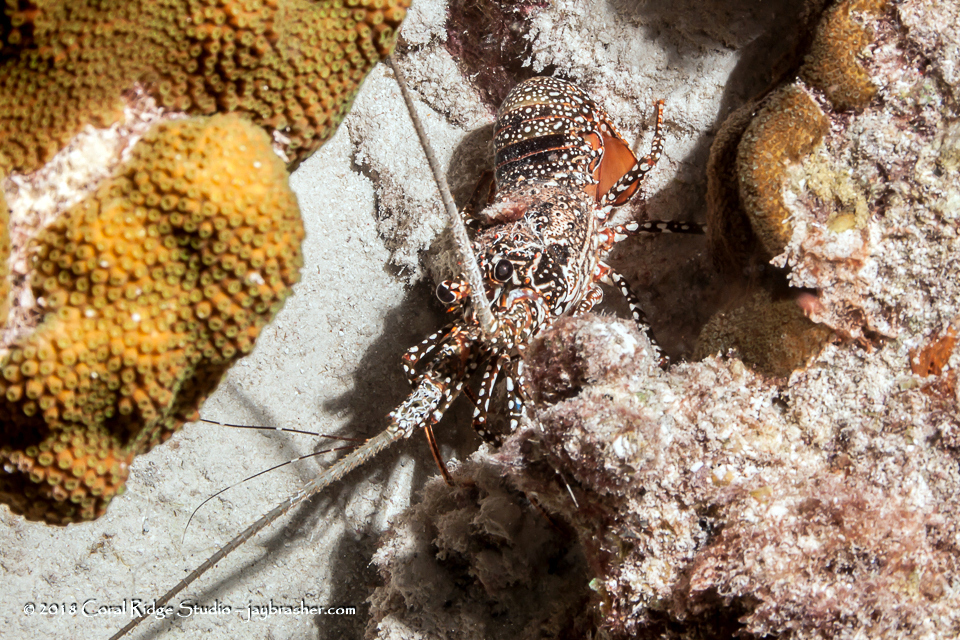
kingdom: Animalia
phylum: Arthropoda
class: Malacostraca
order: Decapoda
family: Palinuridae
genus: Panulirus
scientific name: Panulirus guttatus
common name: Spotted spiny lobster
